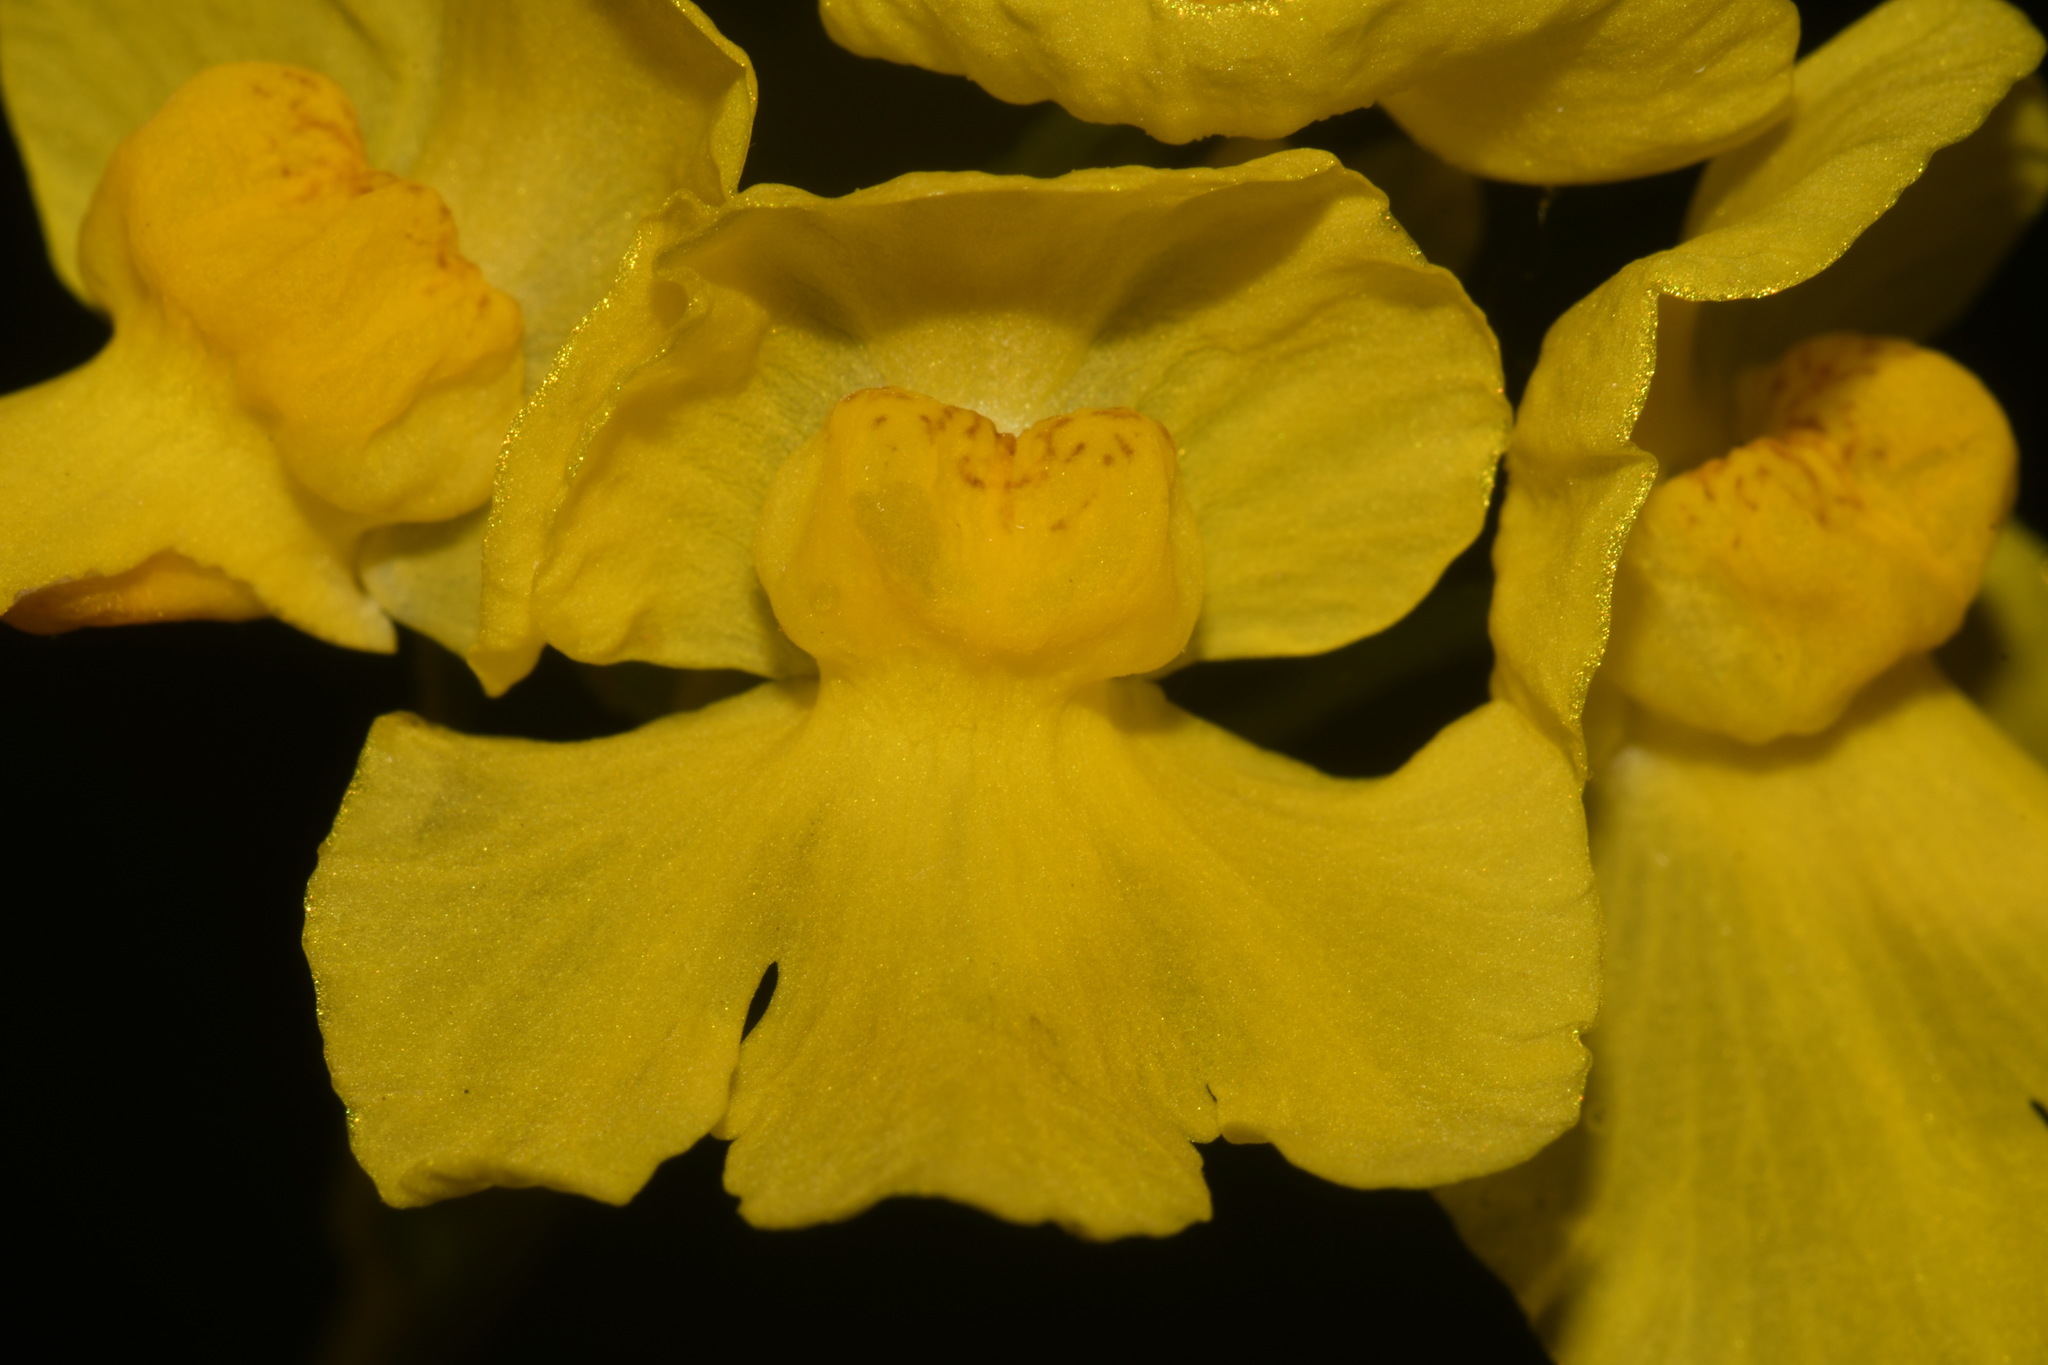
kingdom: Plantae
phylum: Tracheophyta
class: Magnoliopsida
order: Lamiales
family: Lentibulariaceae
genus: Utricularia
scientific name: Utricularia inflata
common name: Floating bladderwort
